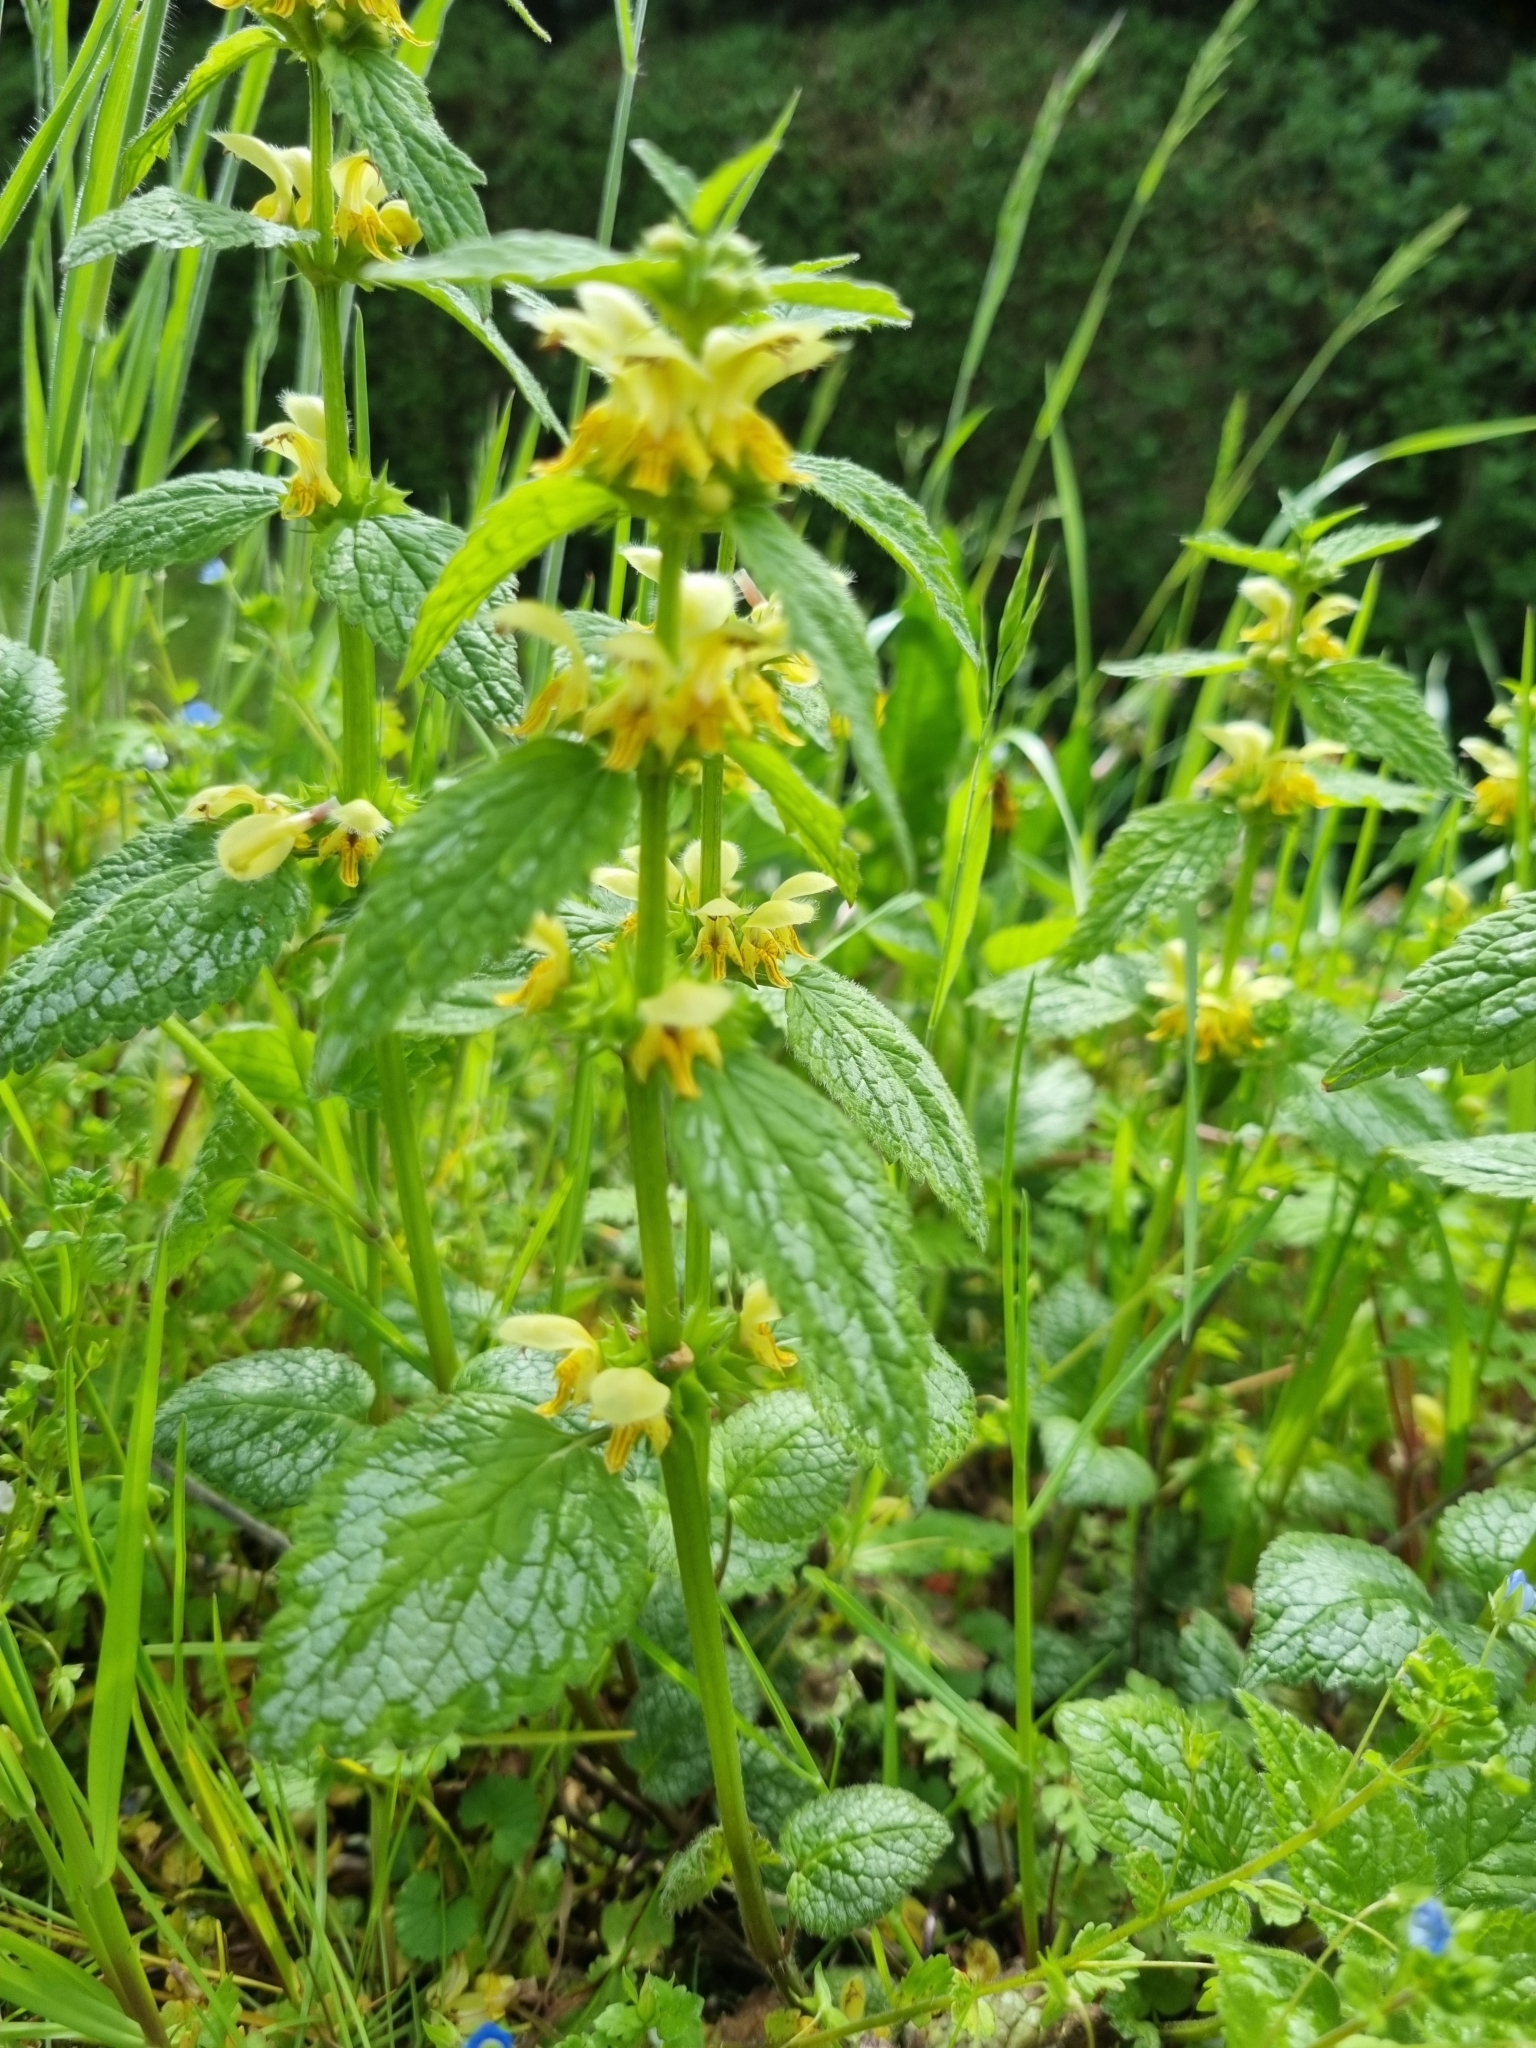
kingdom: Plantae
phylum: Tracheophyta
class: Magnoliopsida
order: Lamiales
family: Lamiaceae
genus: Lamium
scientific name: Lamium galeobdolon
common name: Yellow archangel
